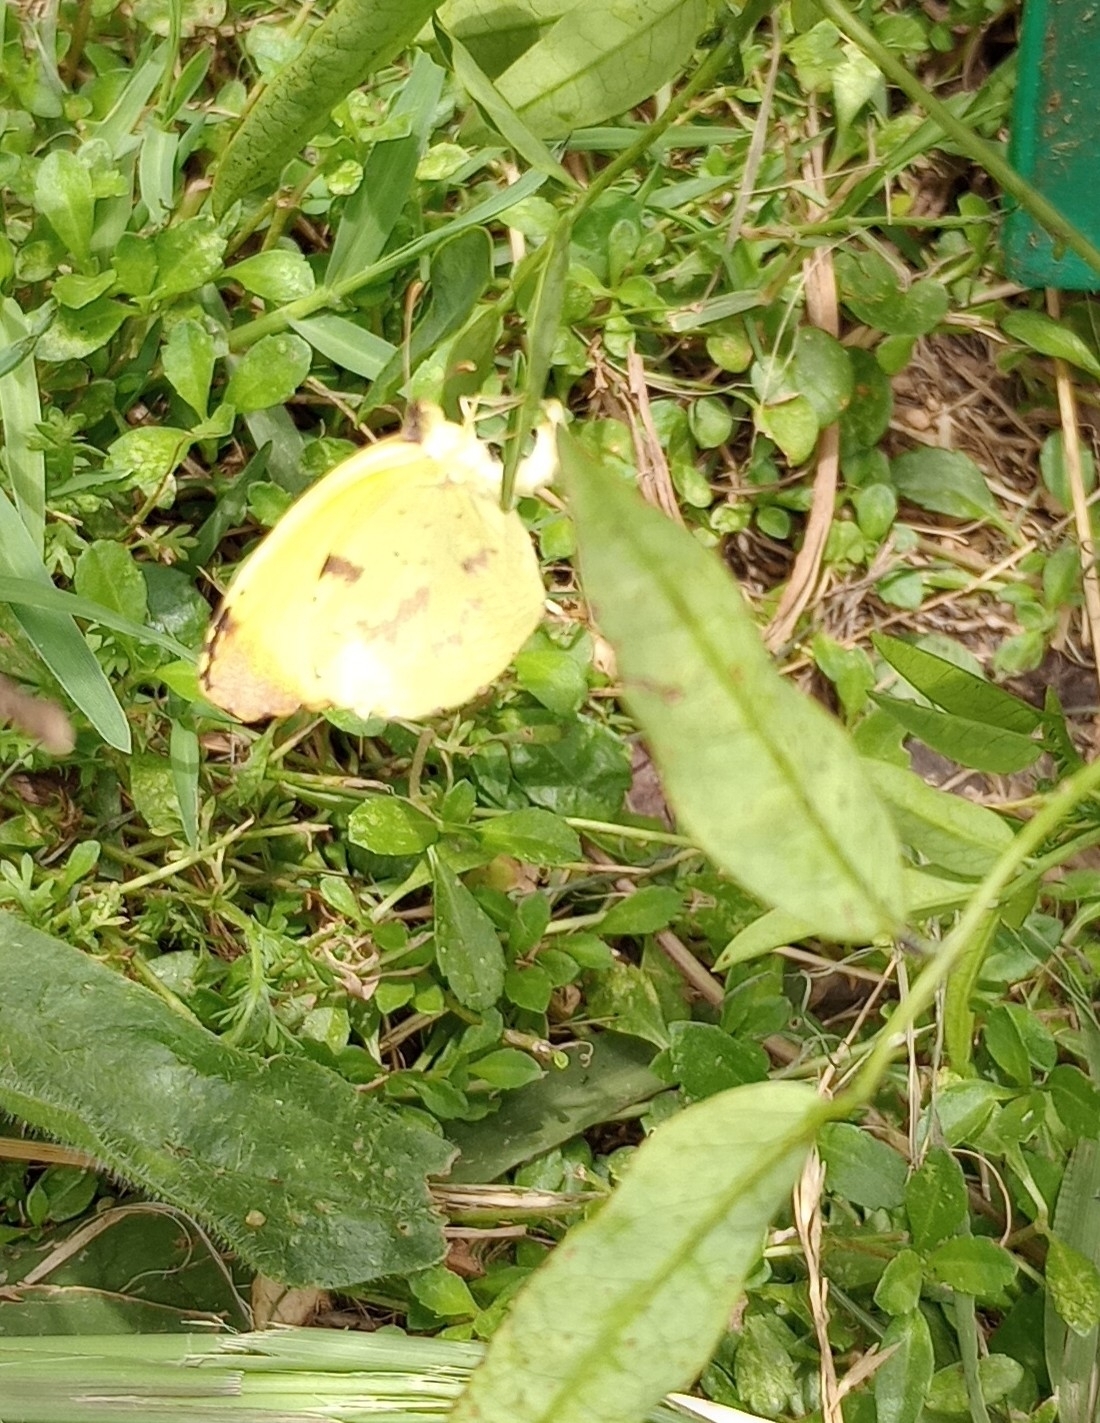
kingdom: Animalia
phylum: Arthropoda
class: Insecta
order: Lepidoptera
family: Pieridae
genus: Teriocolias
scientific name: Teriocolias
